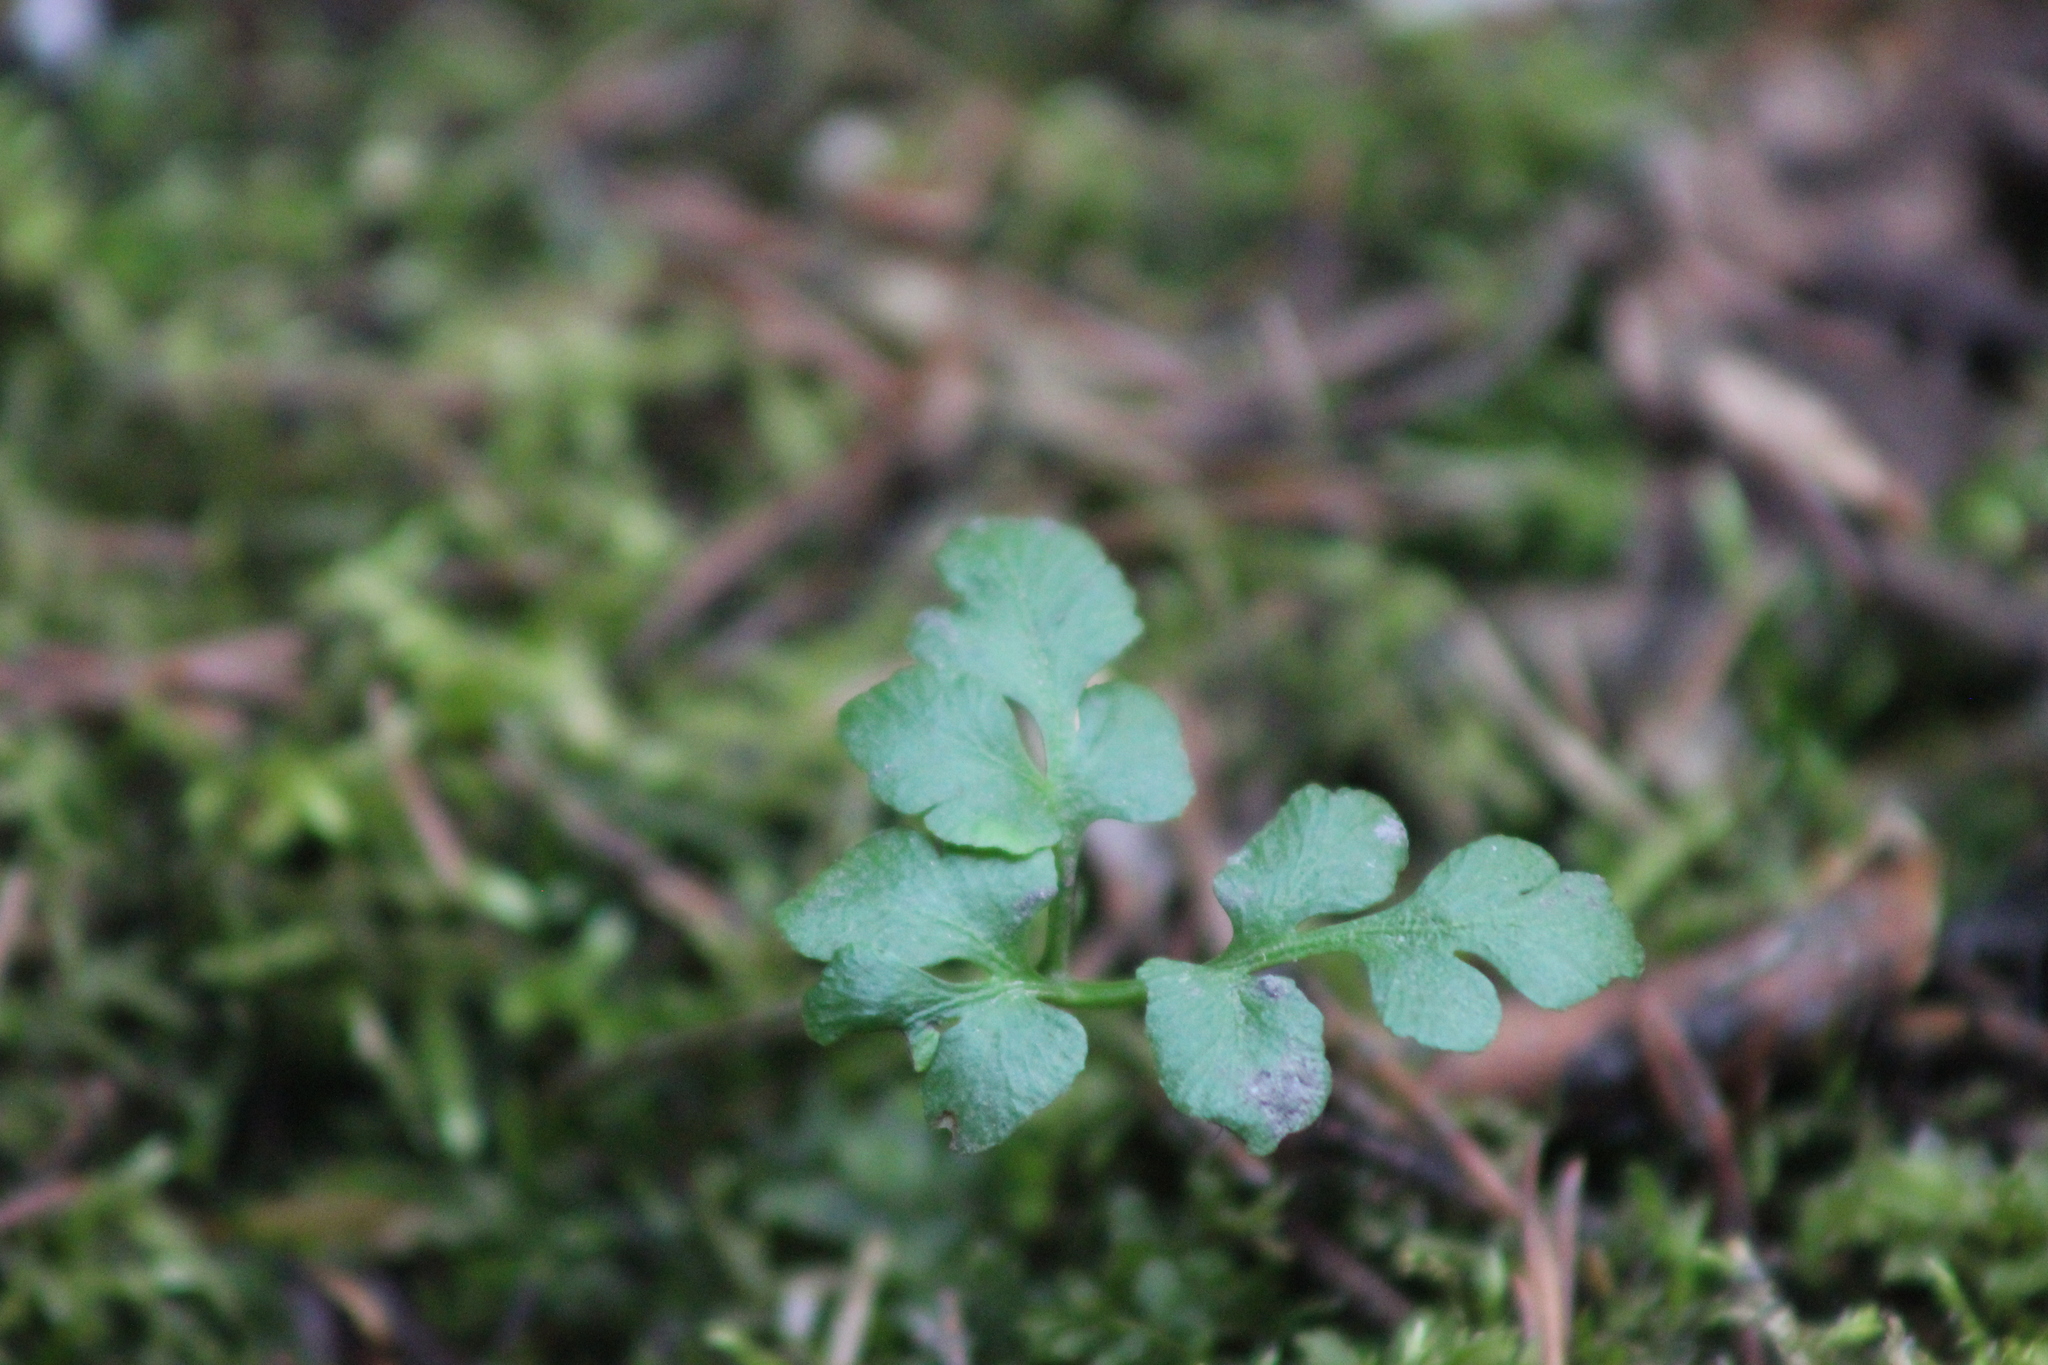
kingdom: Plantae
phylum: Tracheophyta
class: Polypodiopsida
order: Ophioglossales
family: Ophioglossaceae
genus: Sceptridium
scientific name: Sceptridium multifidum
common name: Leathery grape fern
